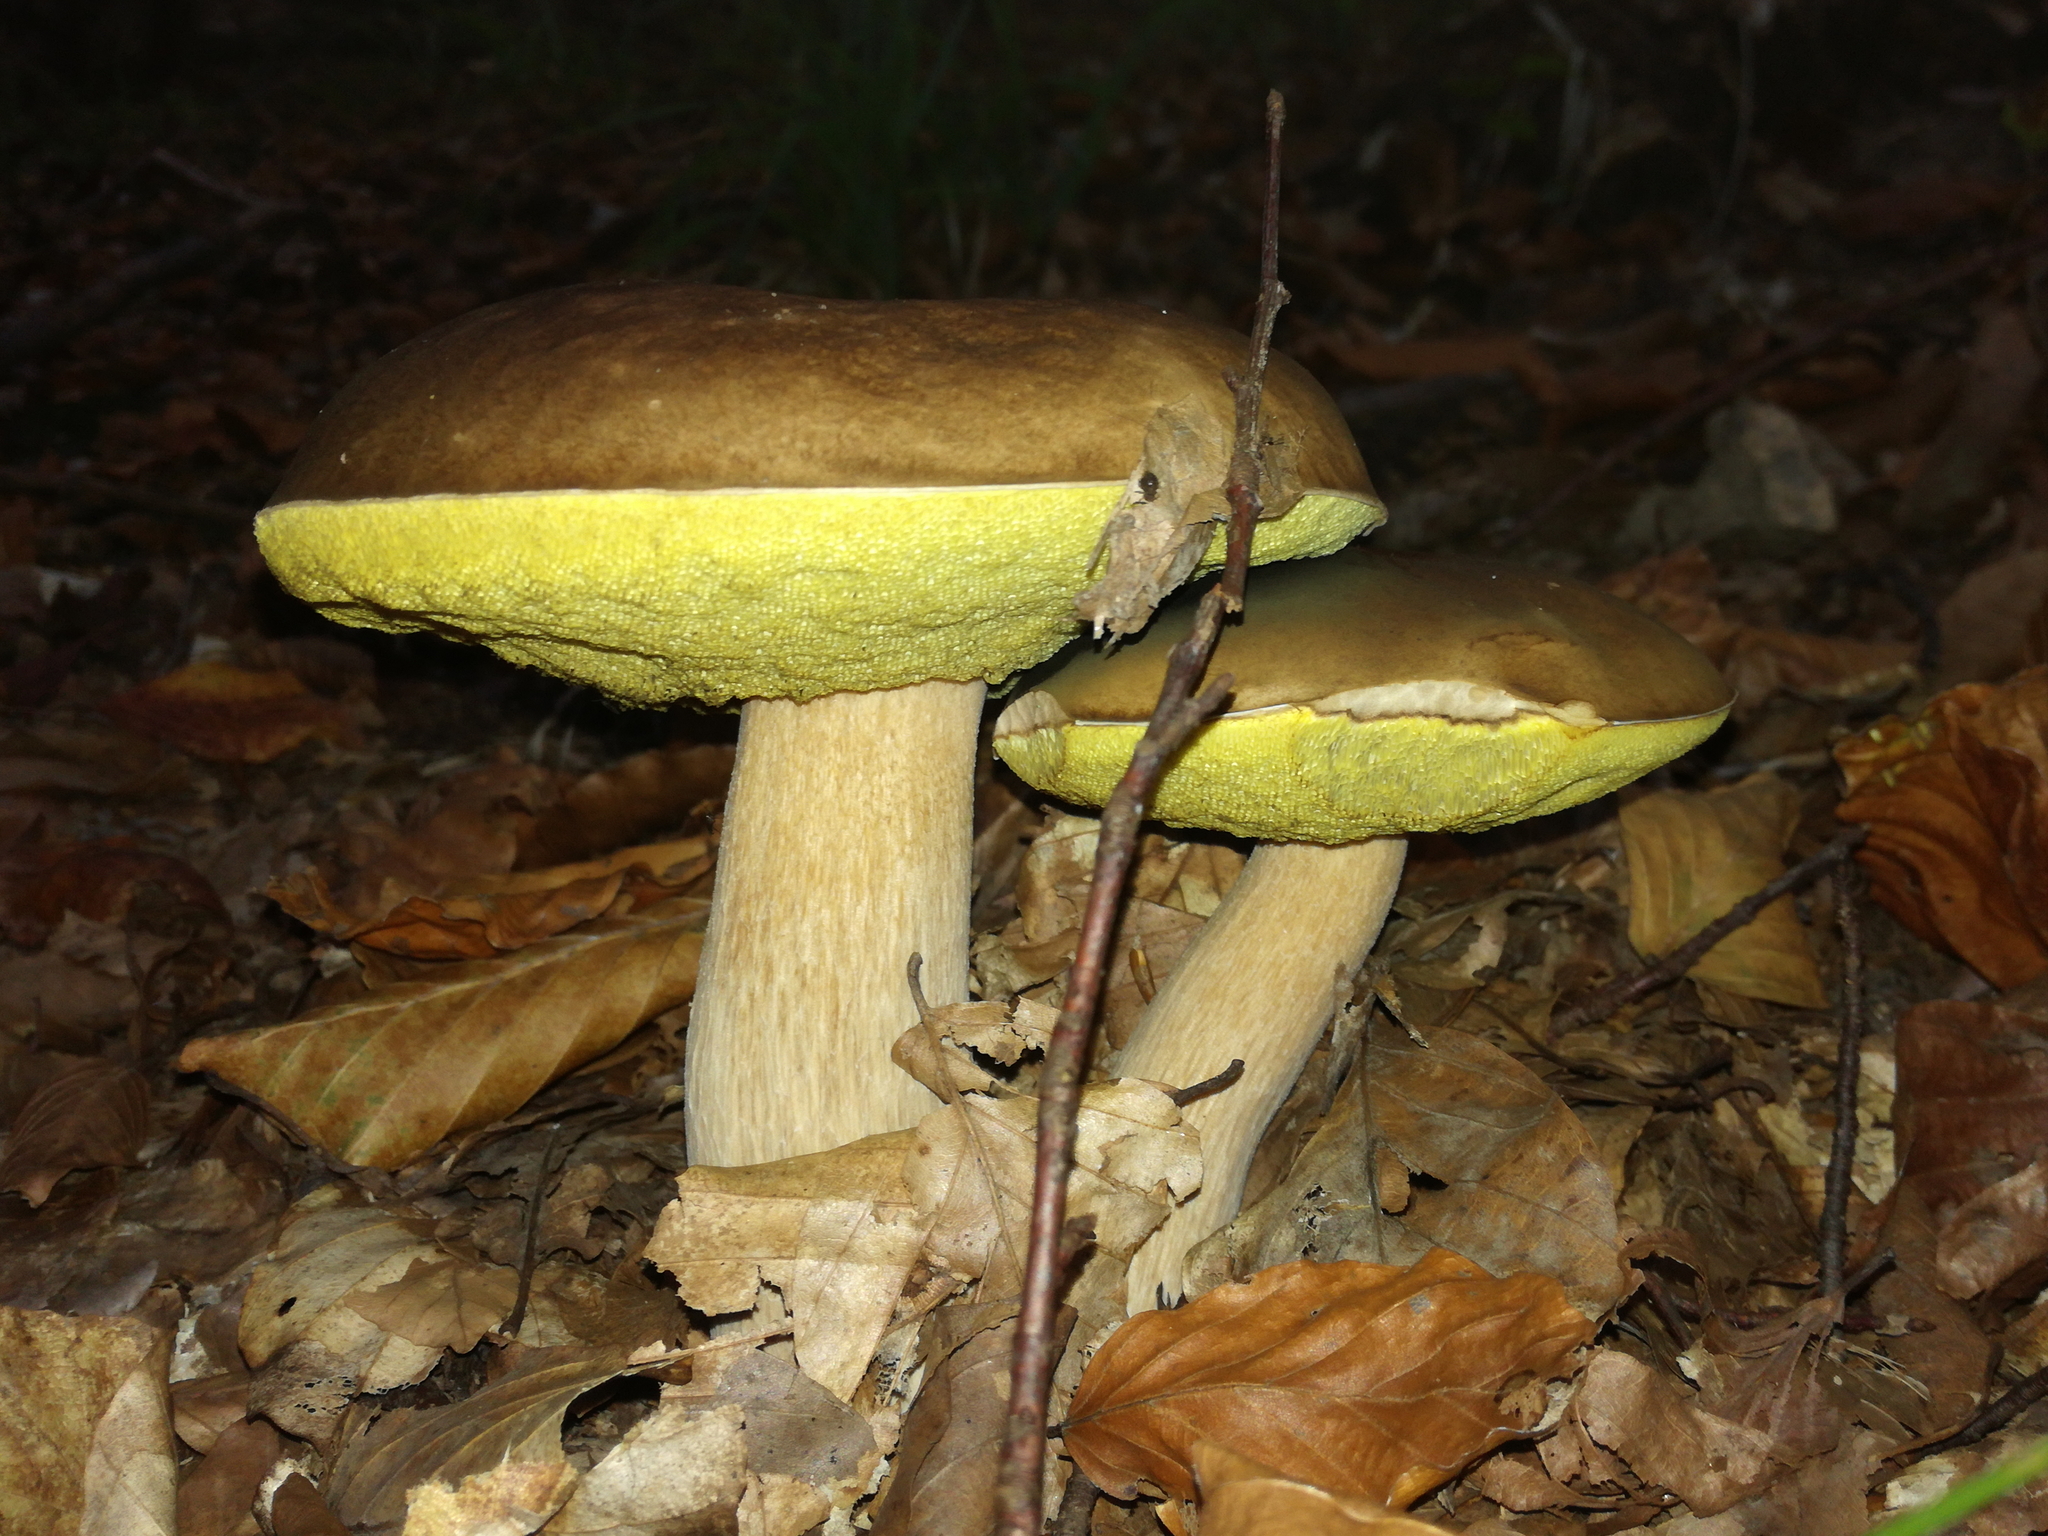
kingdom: Fungi
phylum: Basidiomycota
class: Agaricomycetes
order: Boletales
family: Boletaceae
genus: Boletus
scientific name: Boletus edulis
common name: Cep
